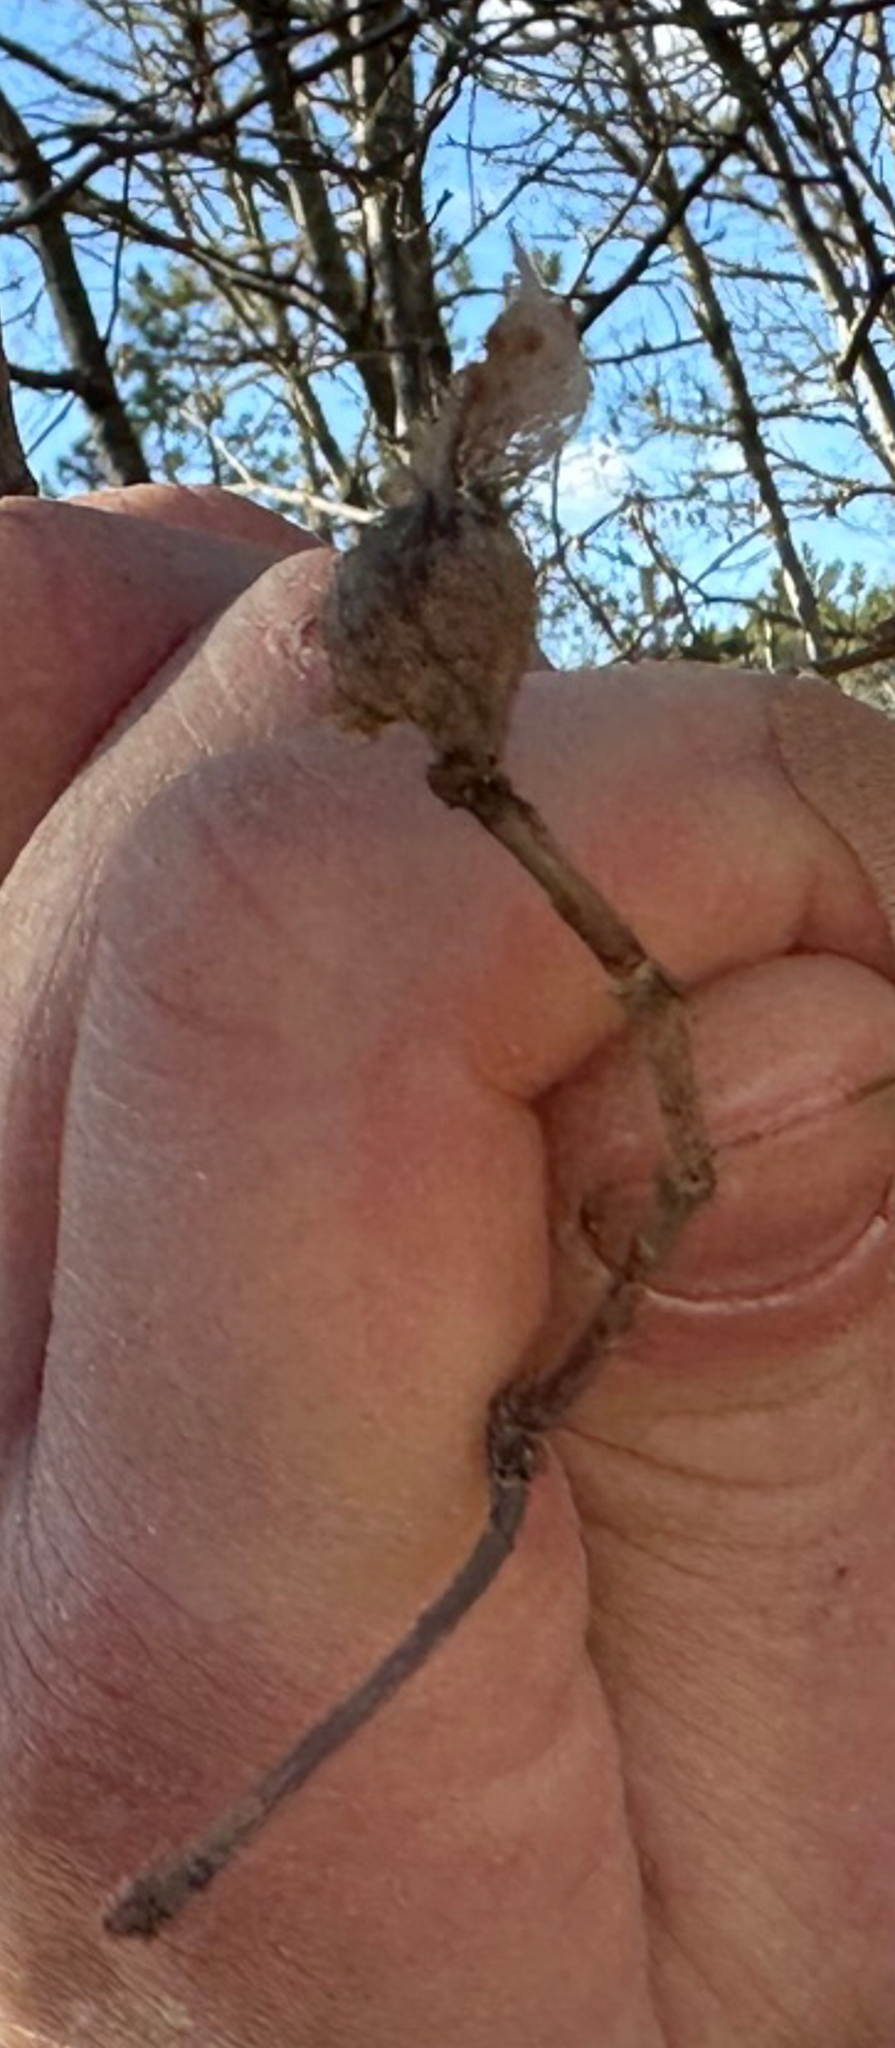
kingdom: Animalia
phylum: Arthropoda
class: Insecta
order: Hymenoptera
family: Cynipidae
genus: Andricus
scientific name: Andricus
